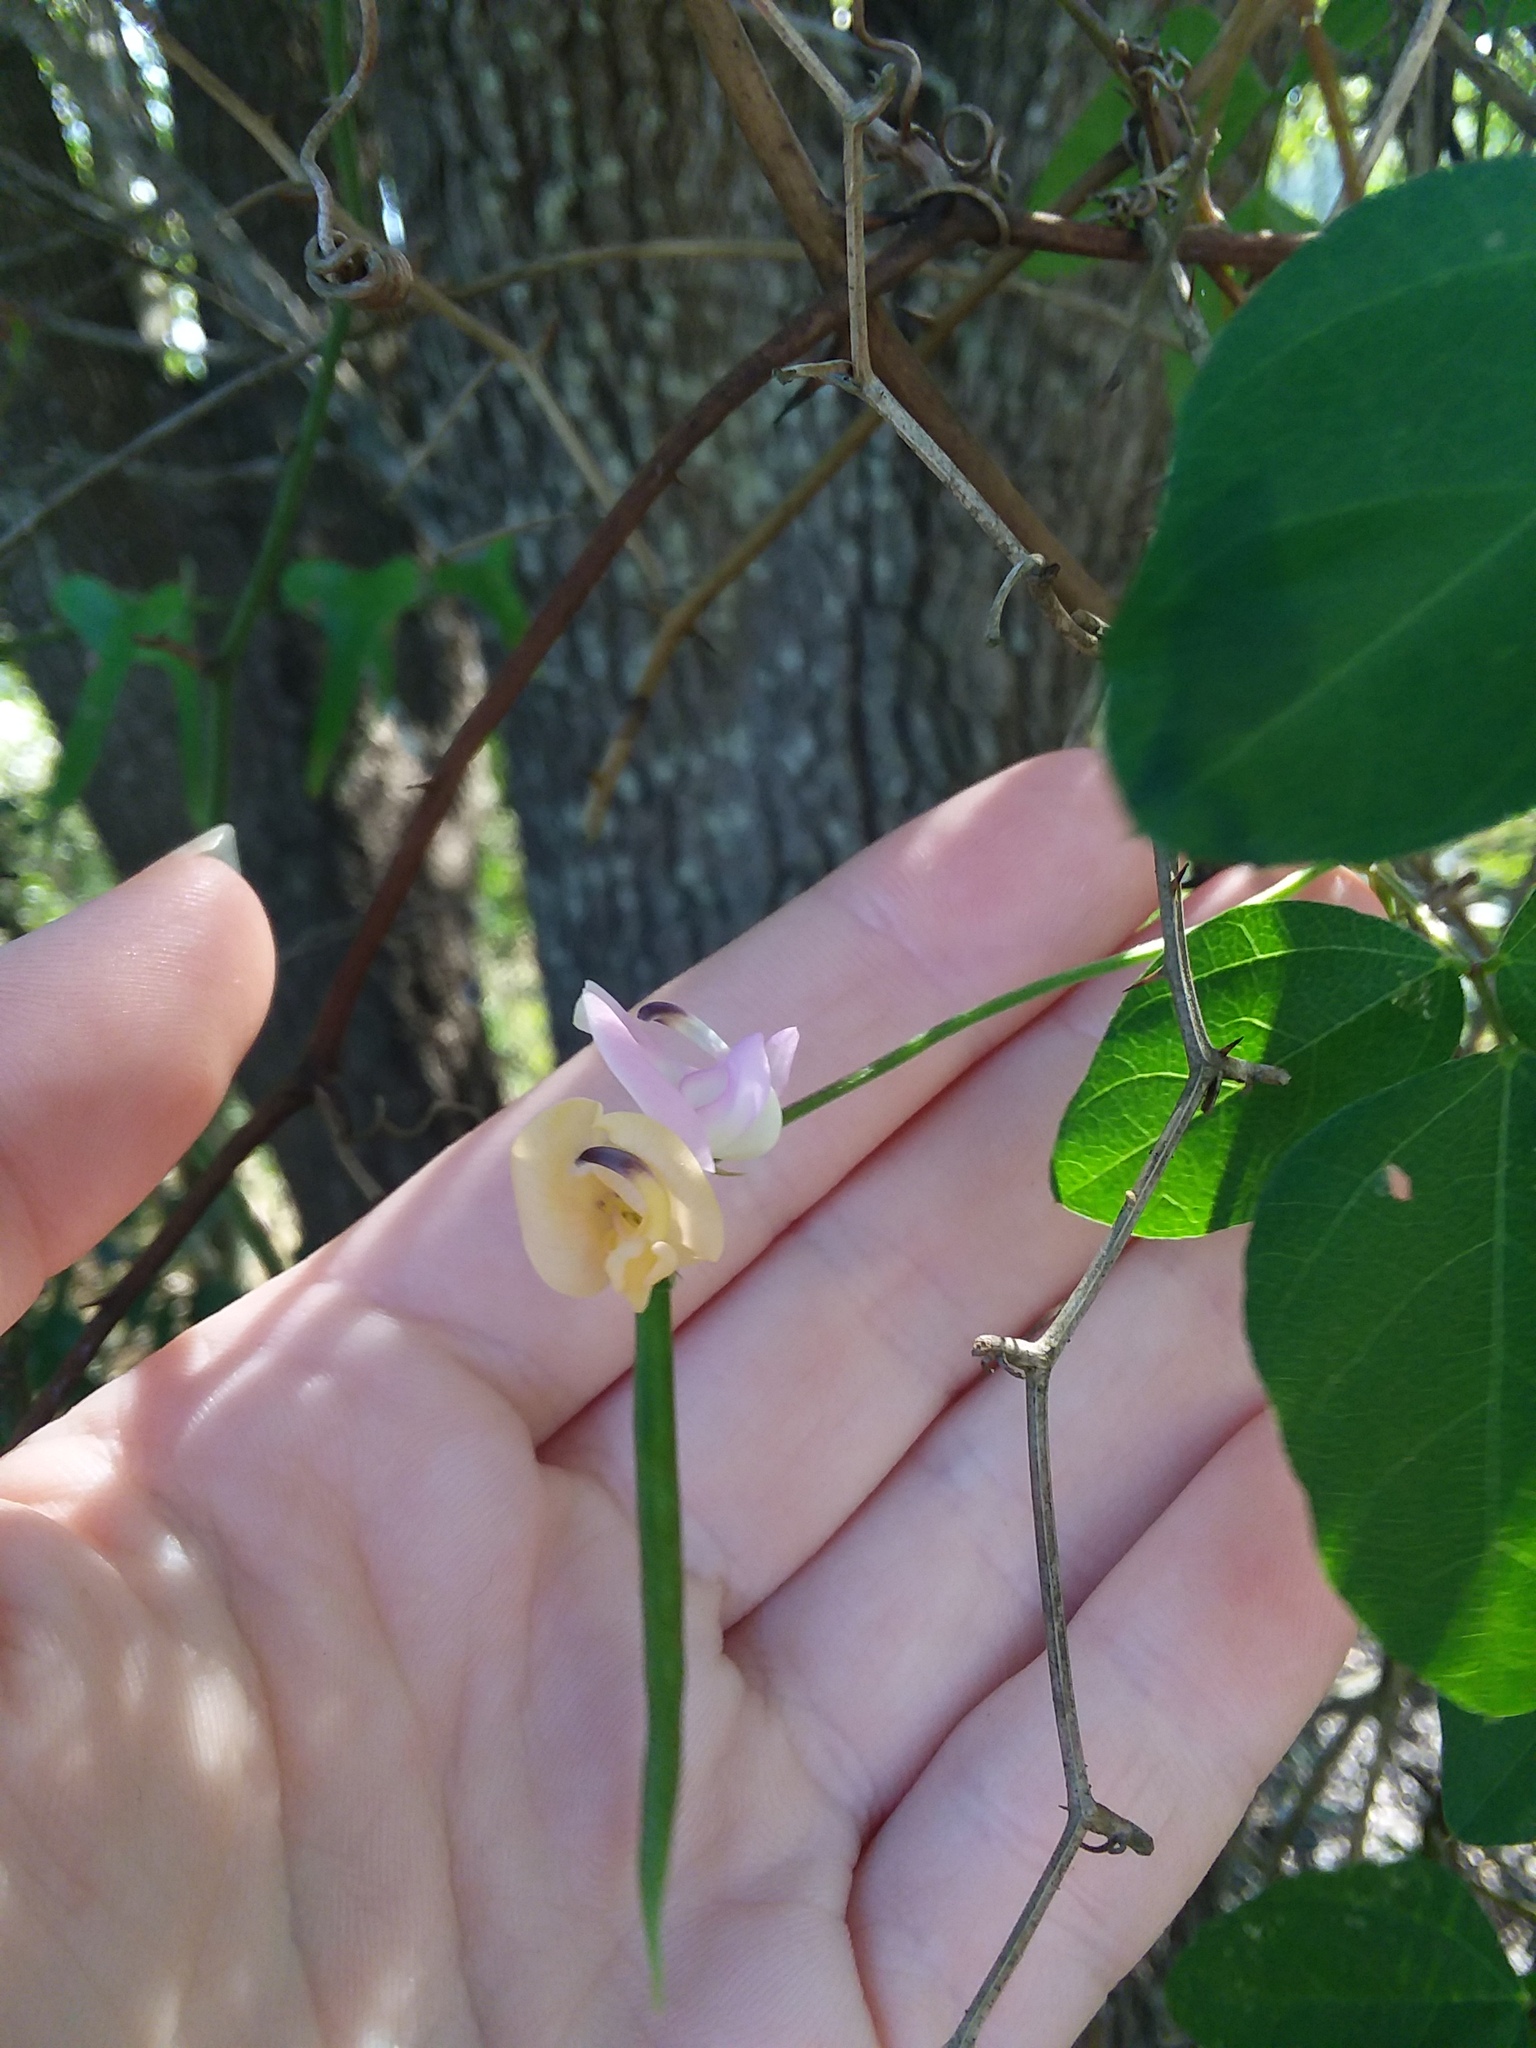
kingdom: Plantae
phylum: Tracheophyta
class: Magnoliopsida
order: Fabales
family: Fabaceae
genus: Strophostyles
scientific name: Strophostyles helvola
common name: Trailing wild bean
